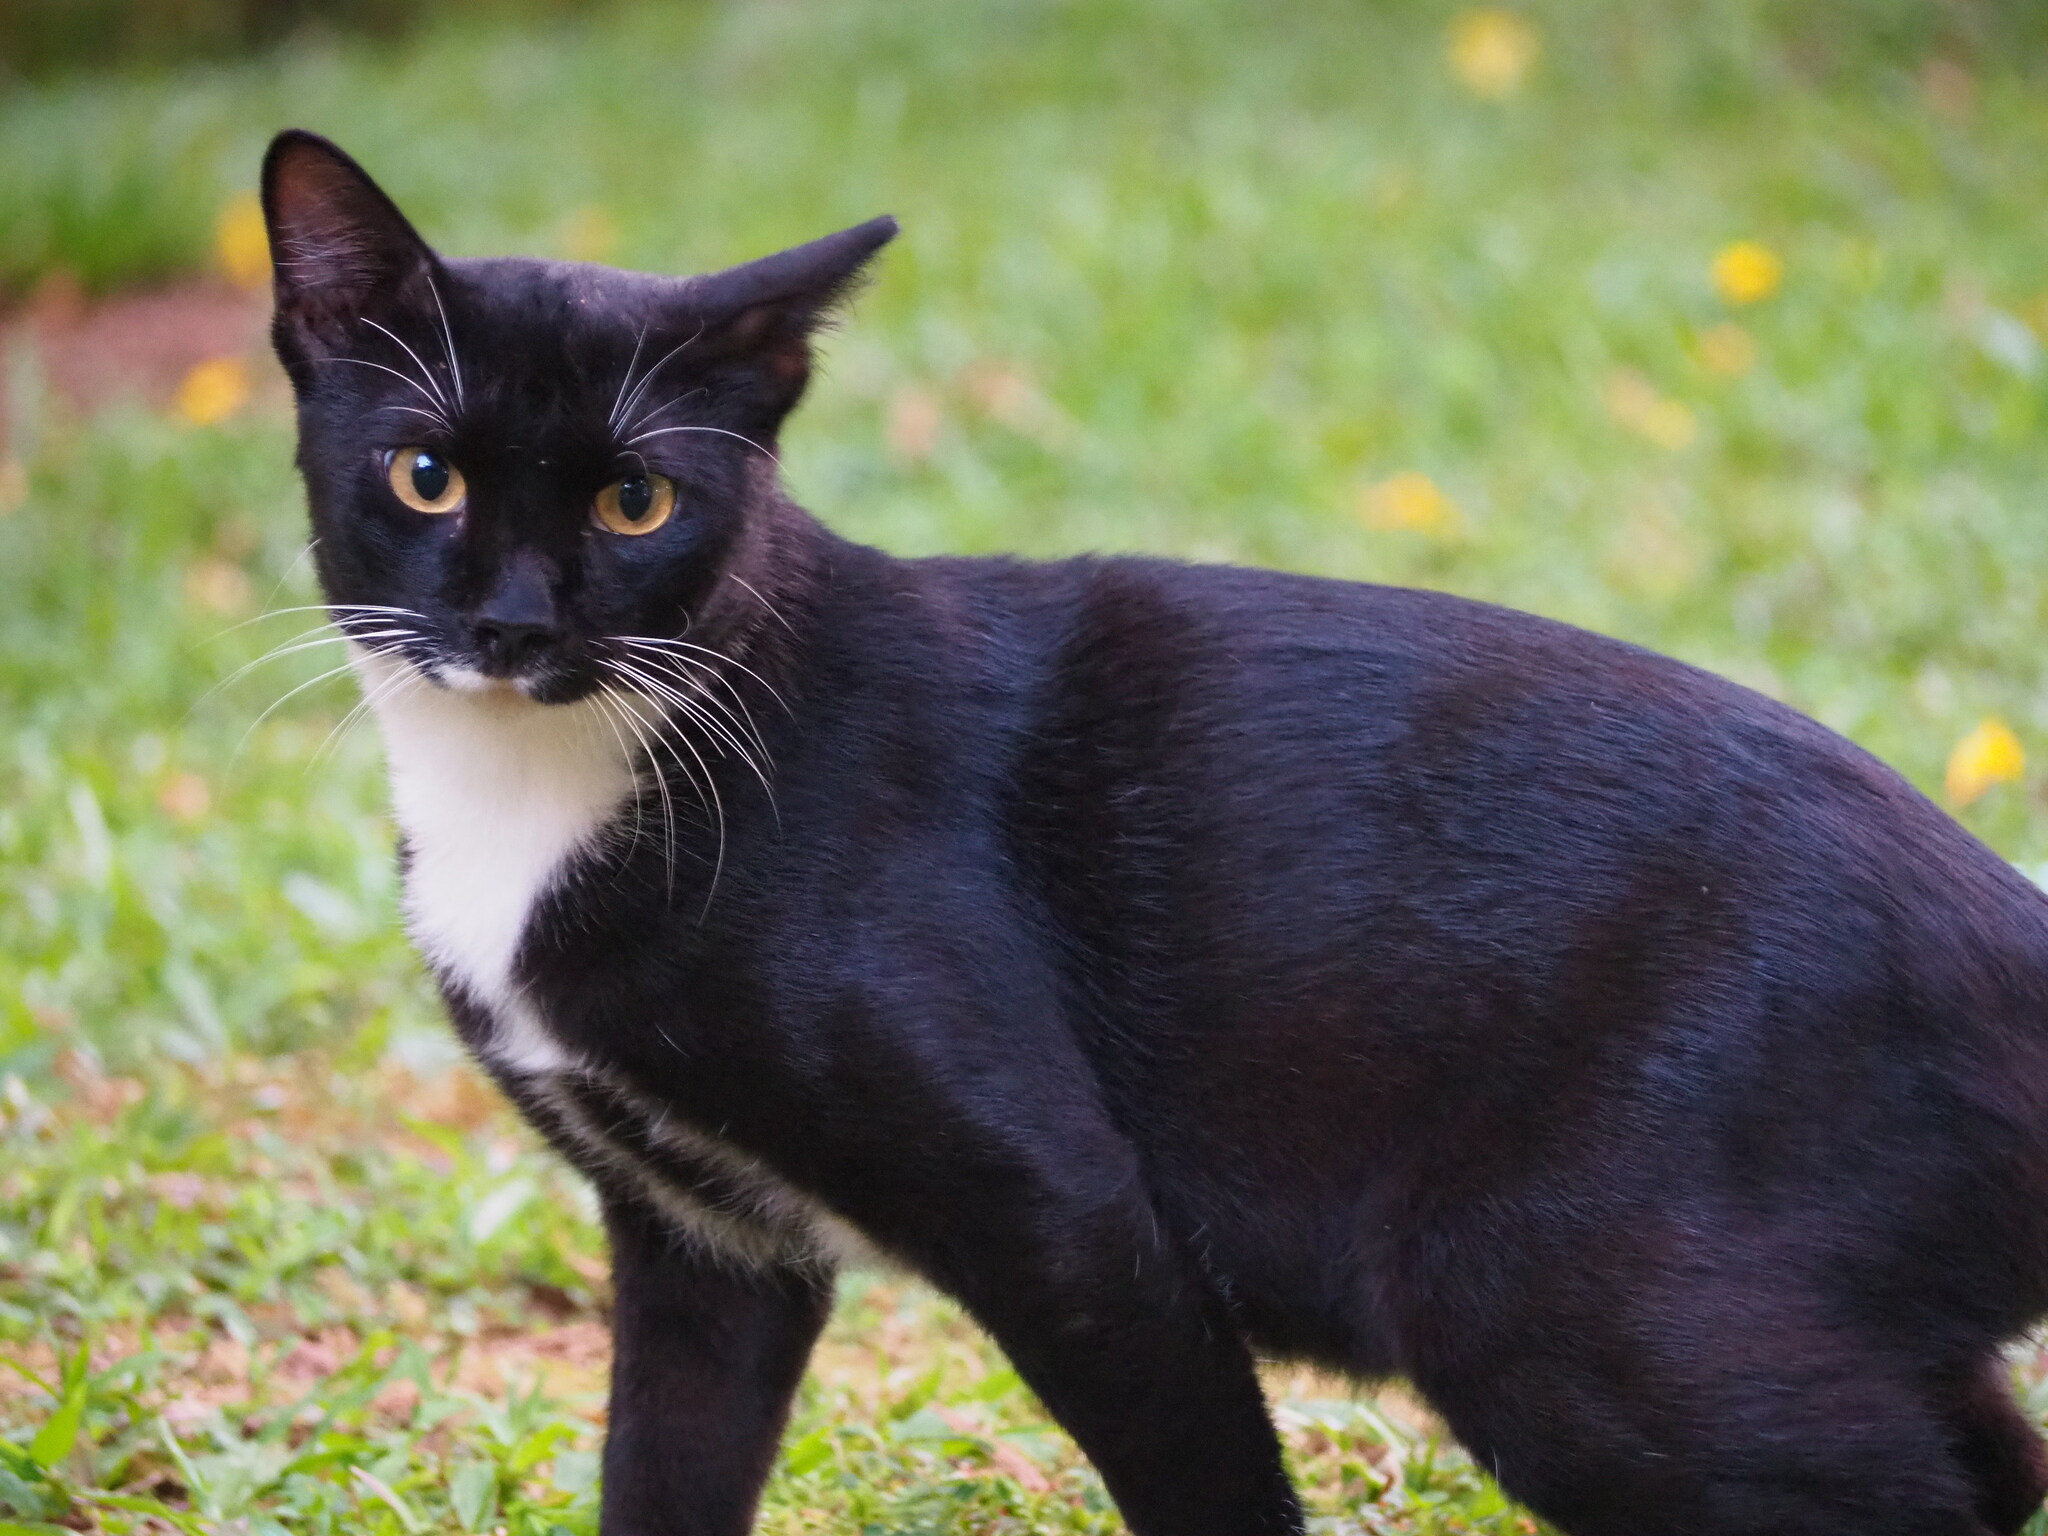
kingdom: Animalia
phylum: Chordata
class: Mammalia
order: Carnivora
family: Felidae
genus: Felis
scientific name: Felis catus
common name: Domestic cat
